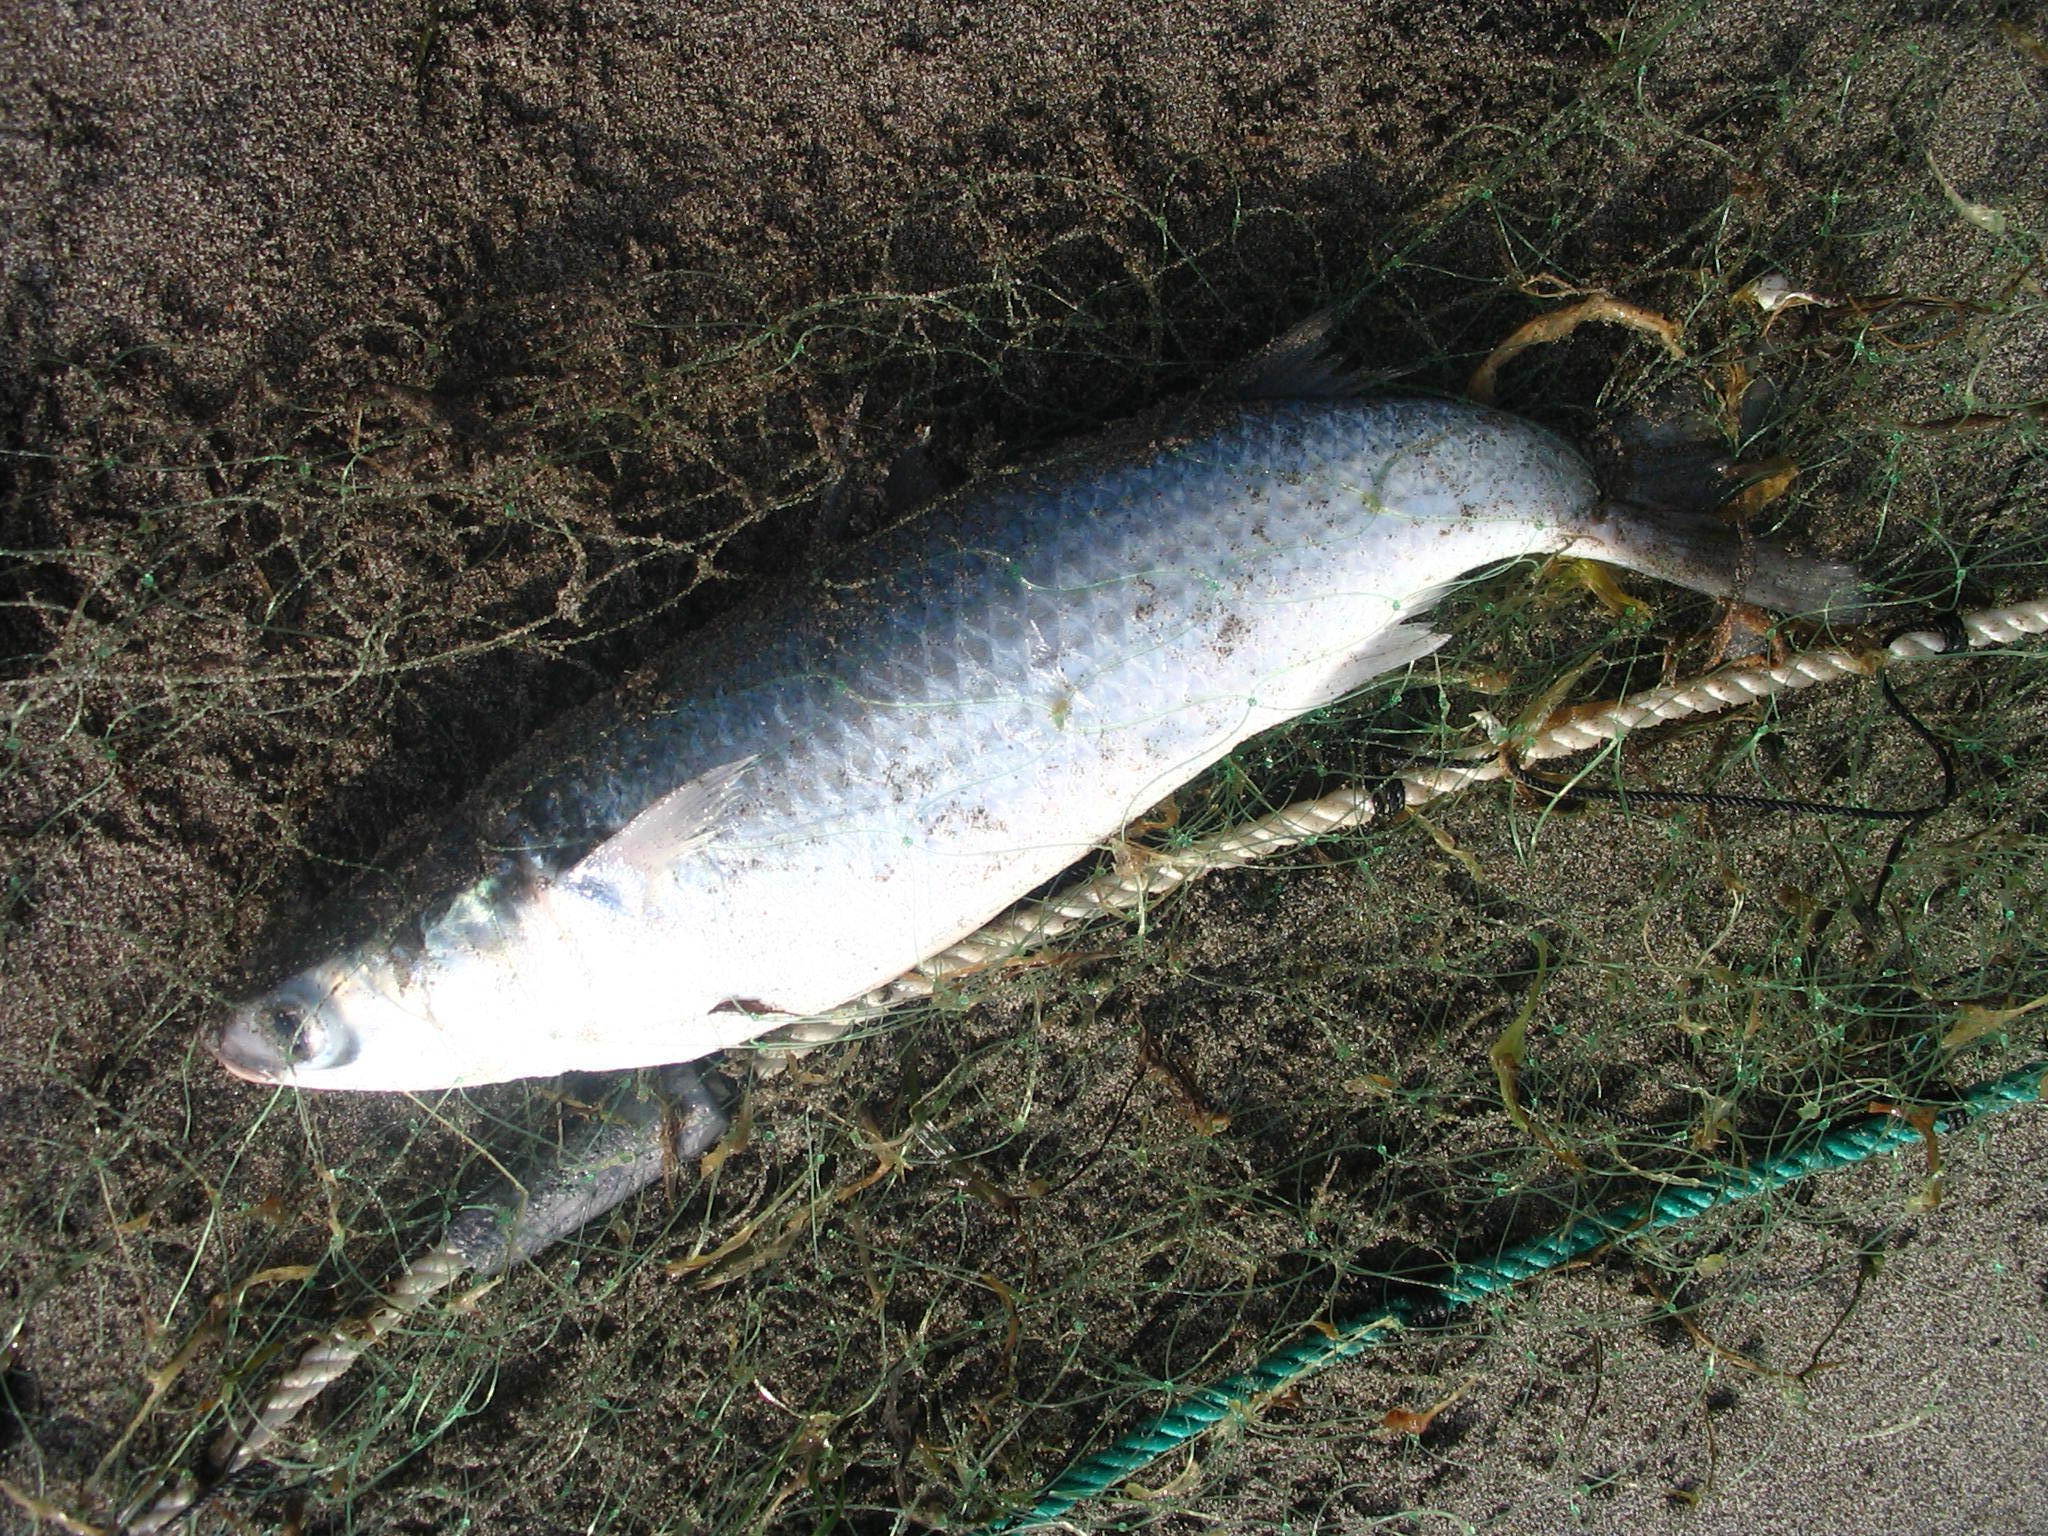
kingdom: Animalia
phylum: Chordata
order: Mugiliformes
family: Mugilidae
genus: Mugil
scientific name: Mugil cephalus
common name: Grey mullet
